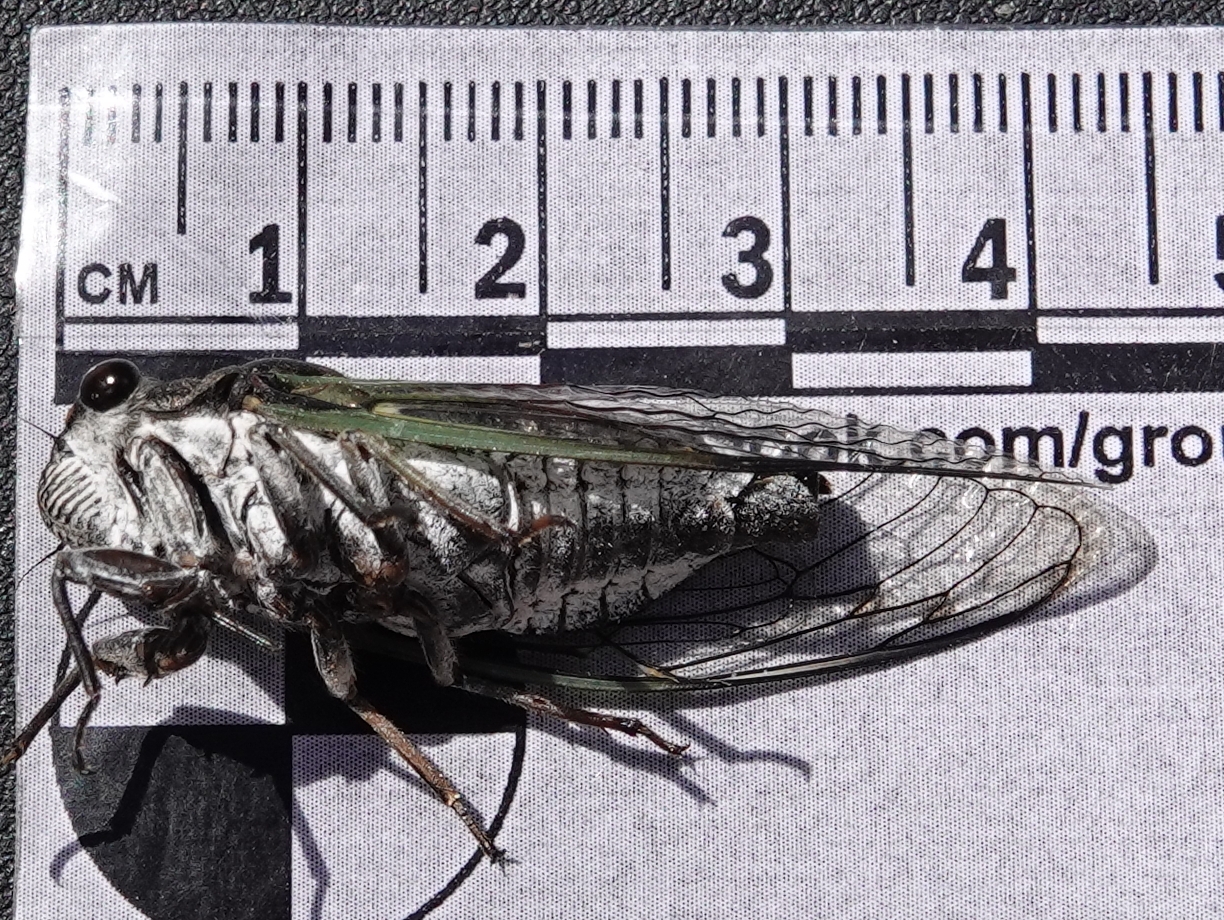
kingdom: Animalia
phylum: Arthropoda
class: Insecta
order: Hemiptera
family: Cicadidae
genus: Neotibicen
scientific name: Neotibicen canicularis
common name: God-day cicada
